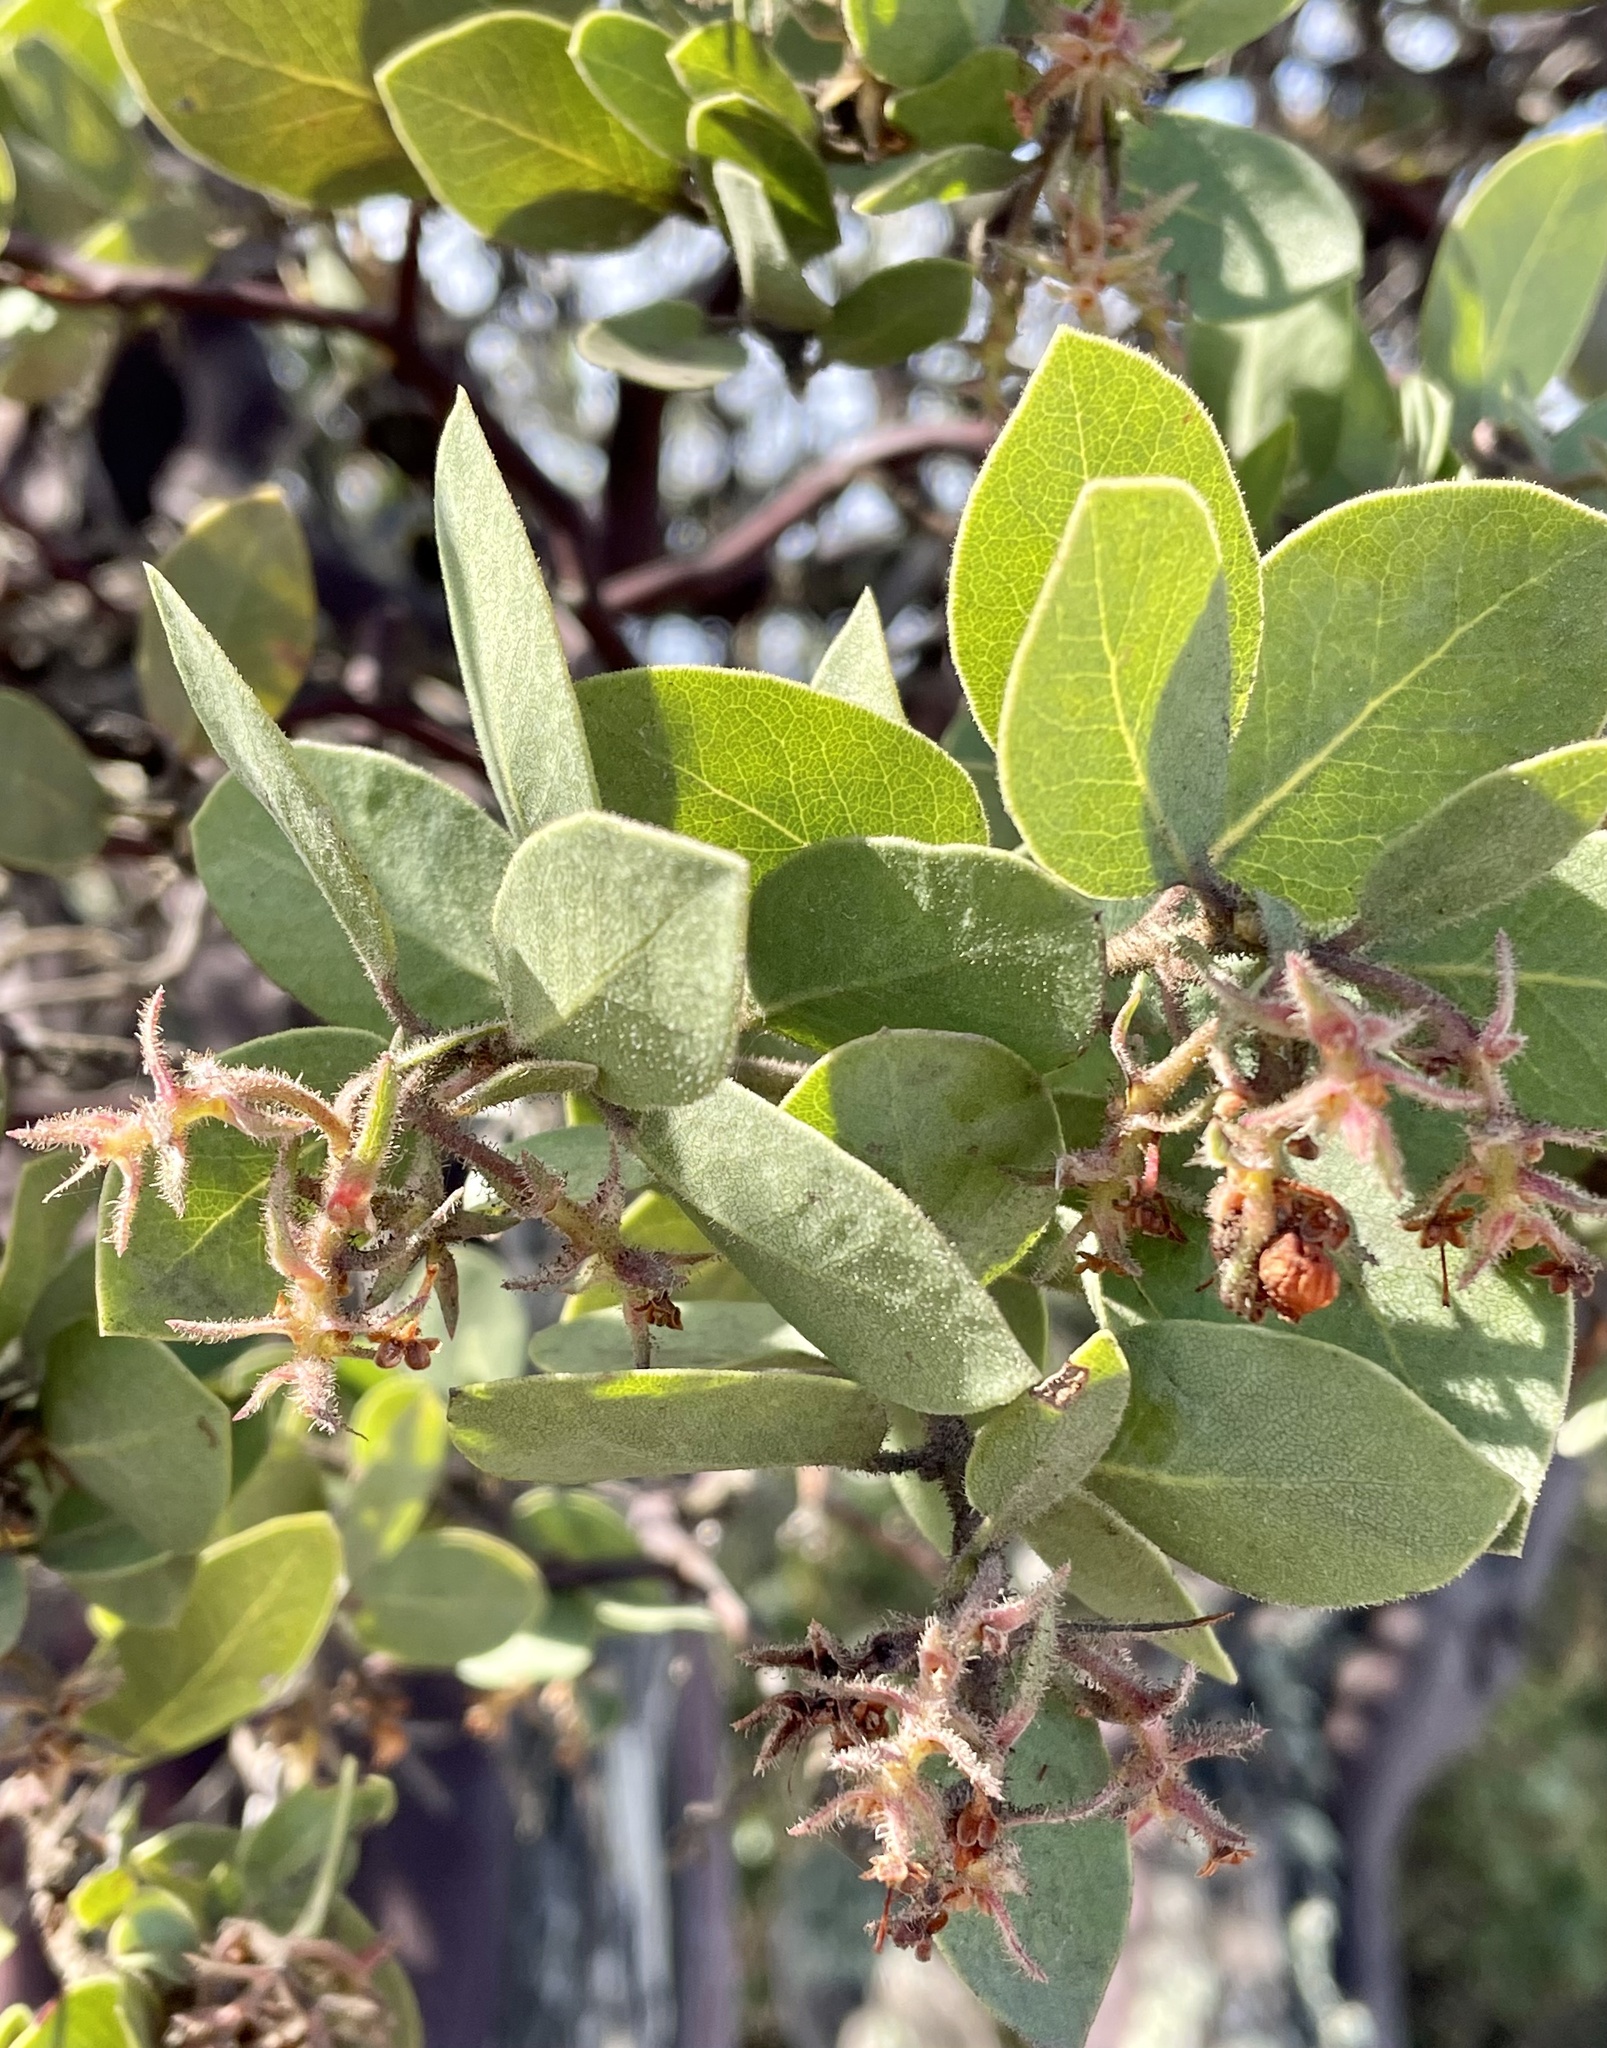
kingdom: Plantae
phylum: Tracheophyta
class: Magnoliopsida
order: Ericales
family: Ericaceae
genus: Arctostaphylos
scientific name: Arctostaphylos montereyensis
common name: Monterey manzanita
